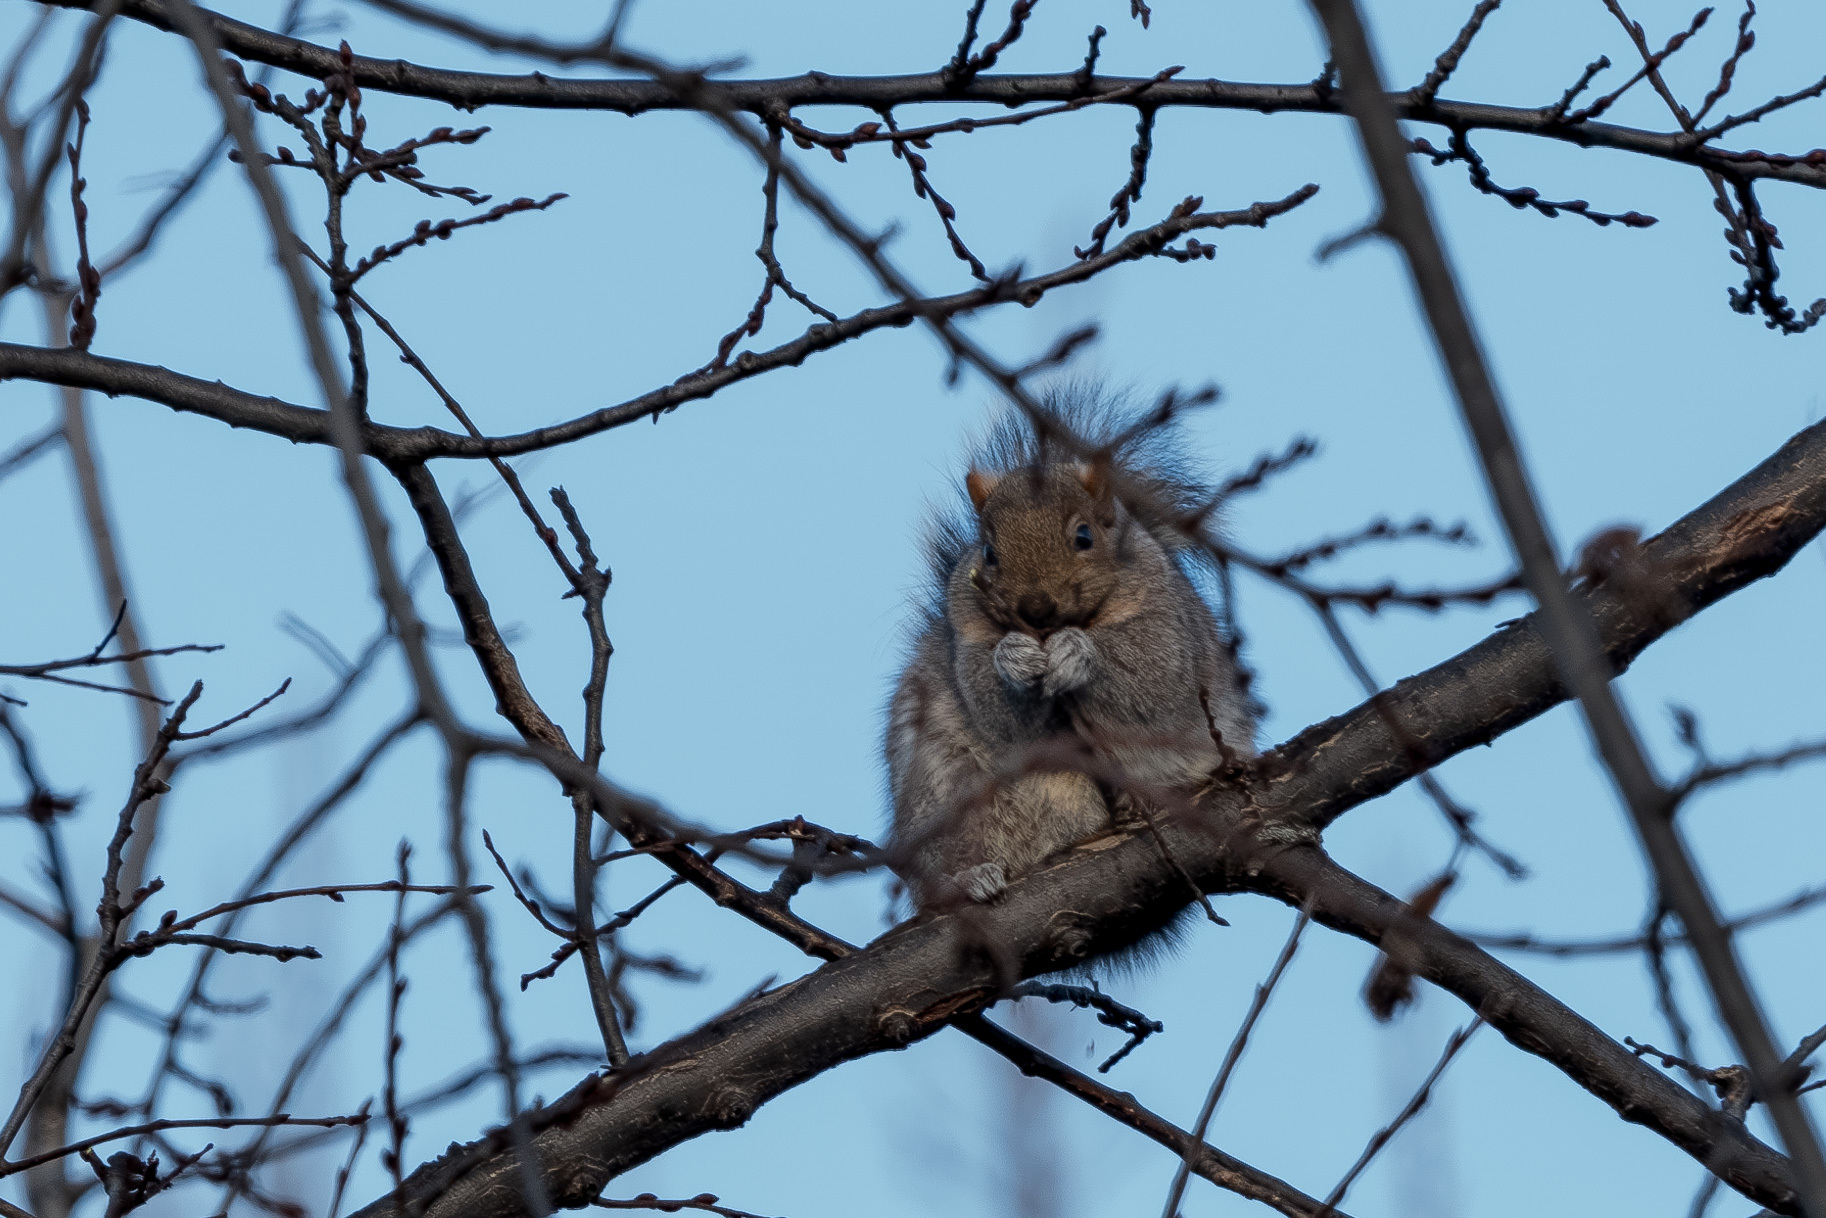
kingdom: Animalia
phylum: Chordata
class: Mammalia
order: Rodentia
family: Sciuridae
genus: Sciurus
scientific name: Sciurus carolinensis
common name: Eastern gray squirrel
